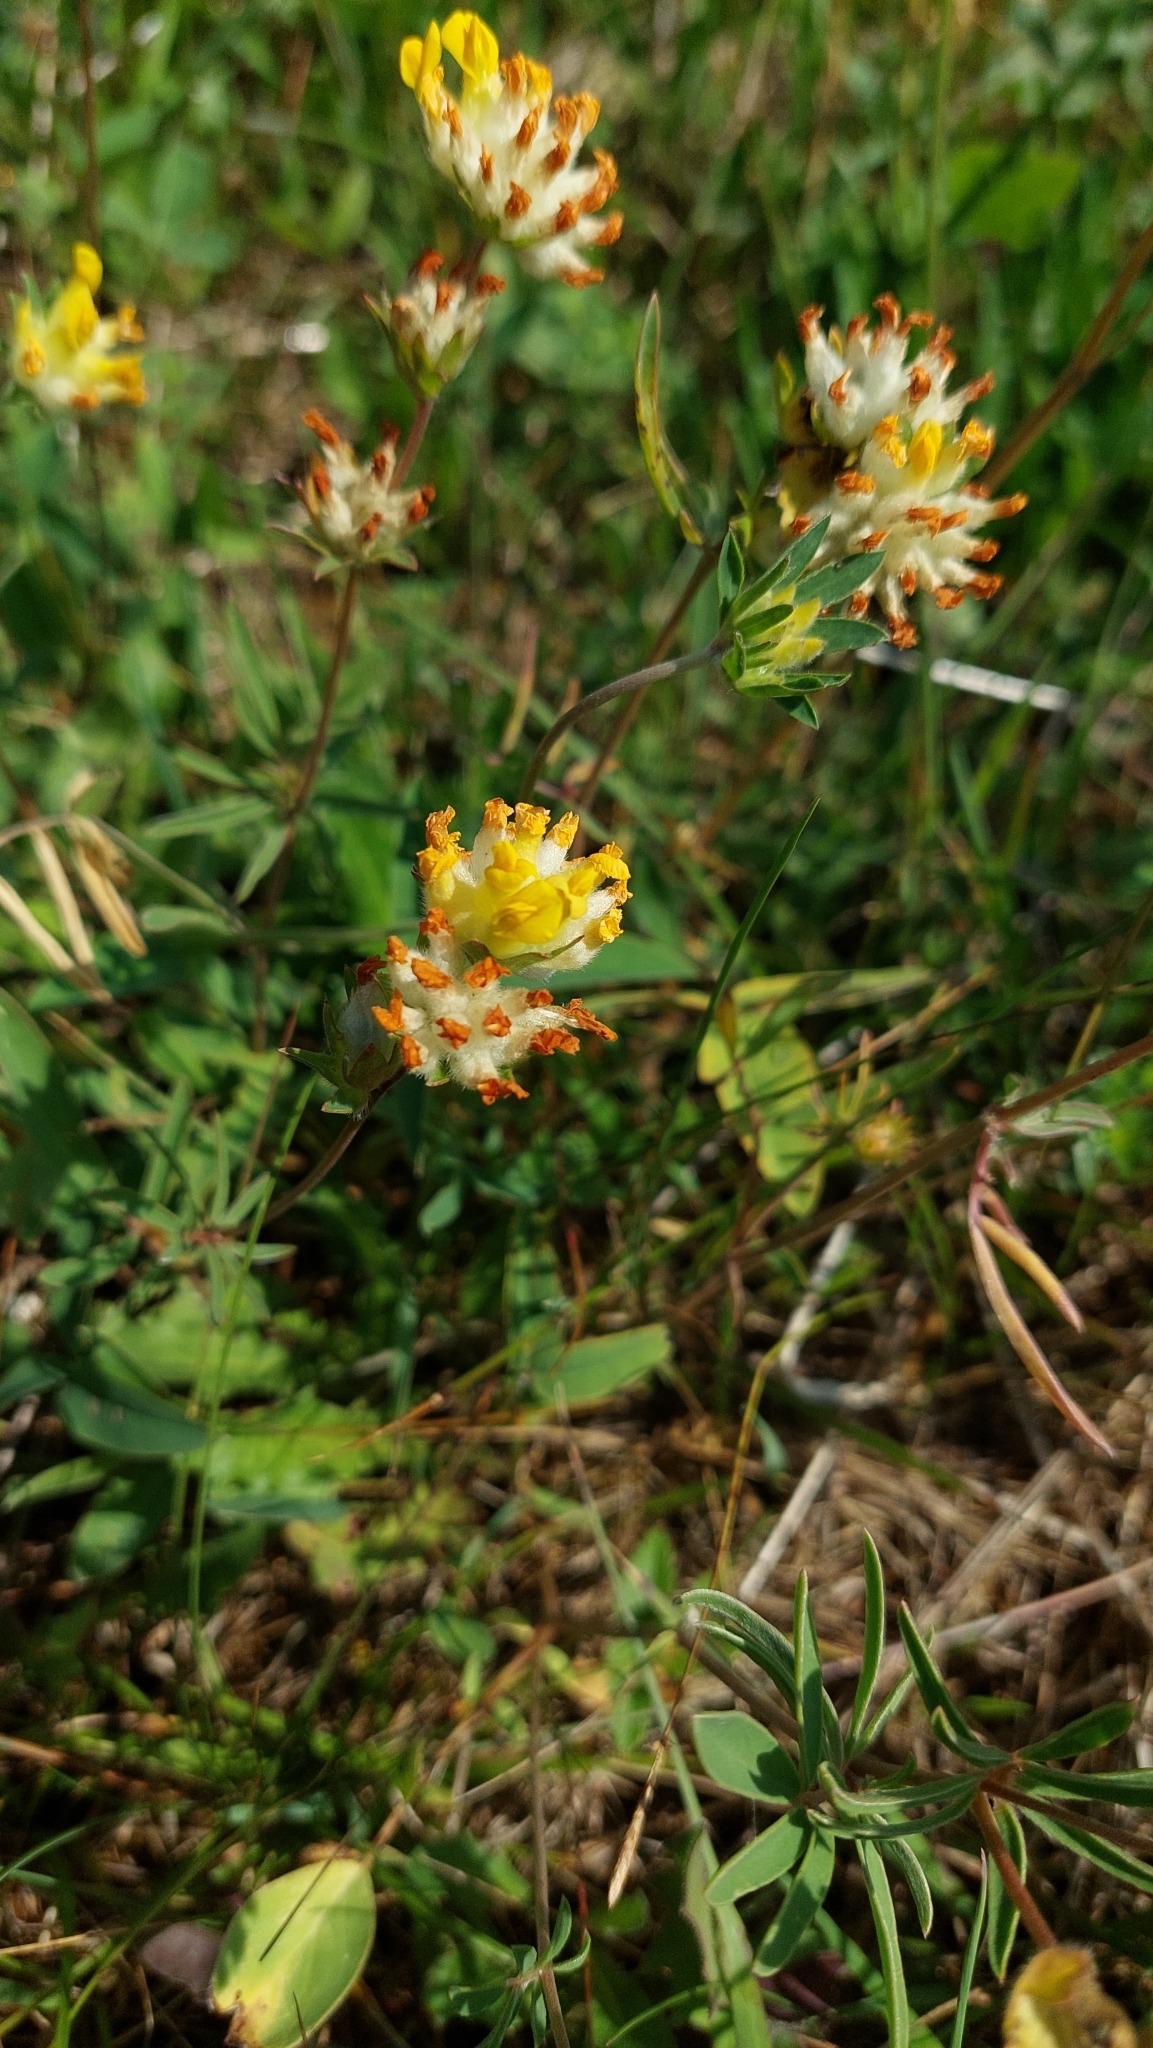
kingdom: Plantae
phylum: Tracheophyta
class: Magnoliopsida
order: Fabales
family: Fabaceae
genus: Anthyllis
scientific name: Anthyllis vulneraria
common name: Kidney vetch
